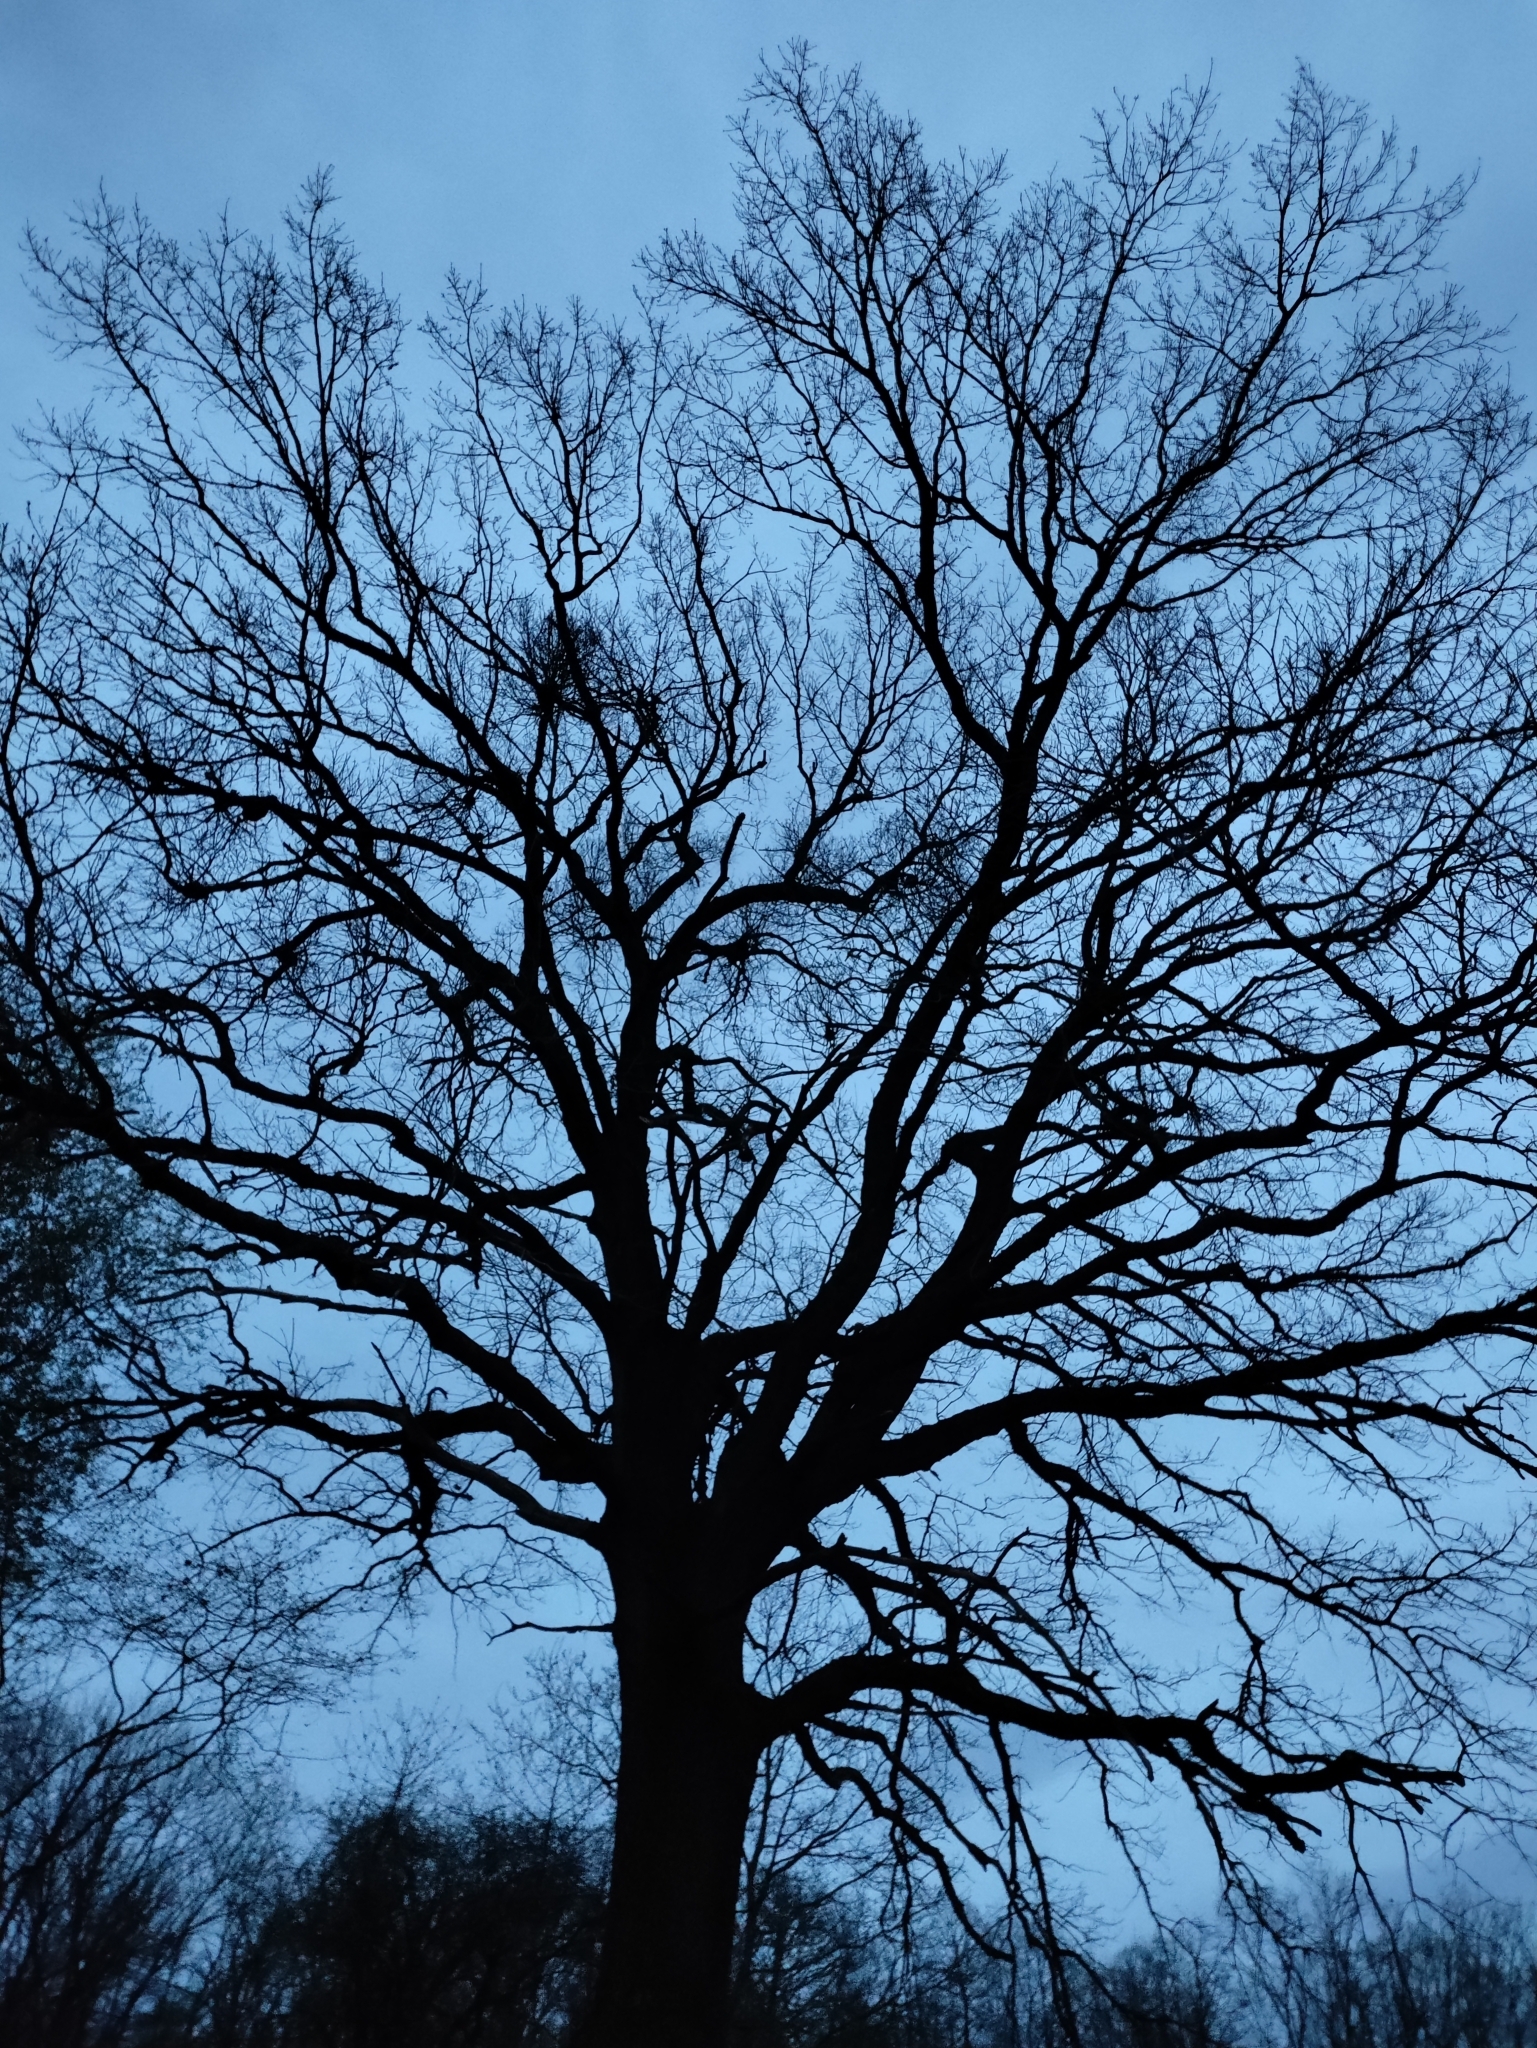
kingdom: Plantae
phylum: Tracheophyta
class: Magnoliopsida
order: Santalales
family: Loranthaceae
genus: Loranthus
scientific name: Loranthus europaeus
